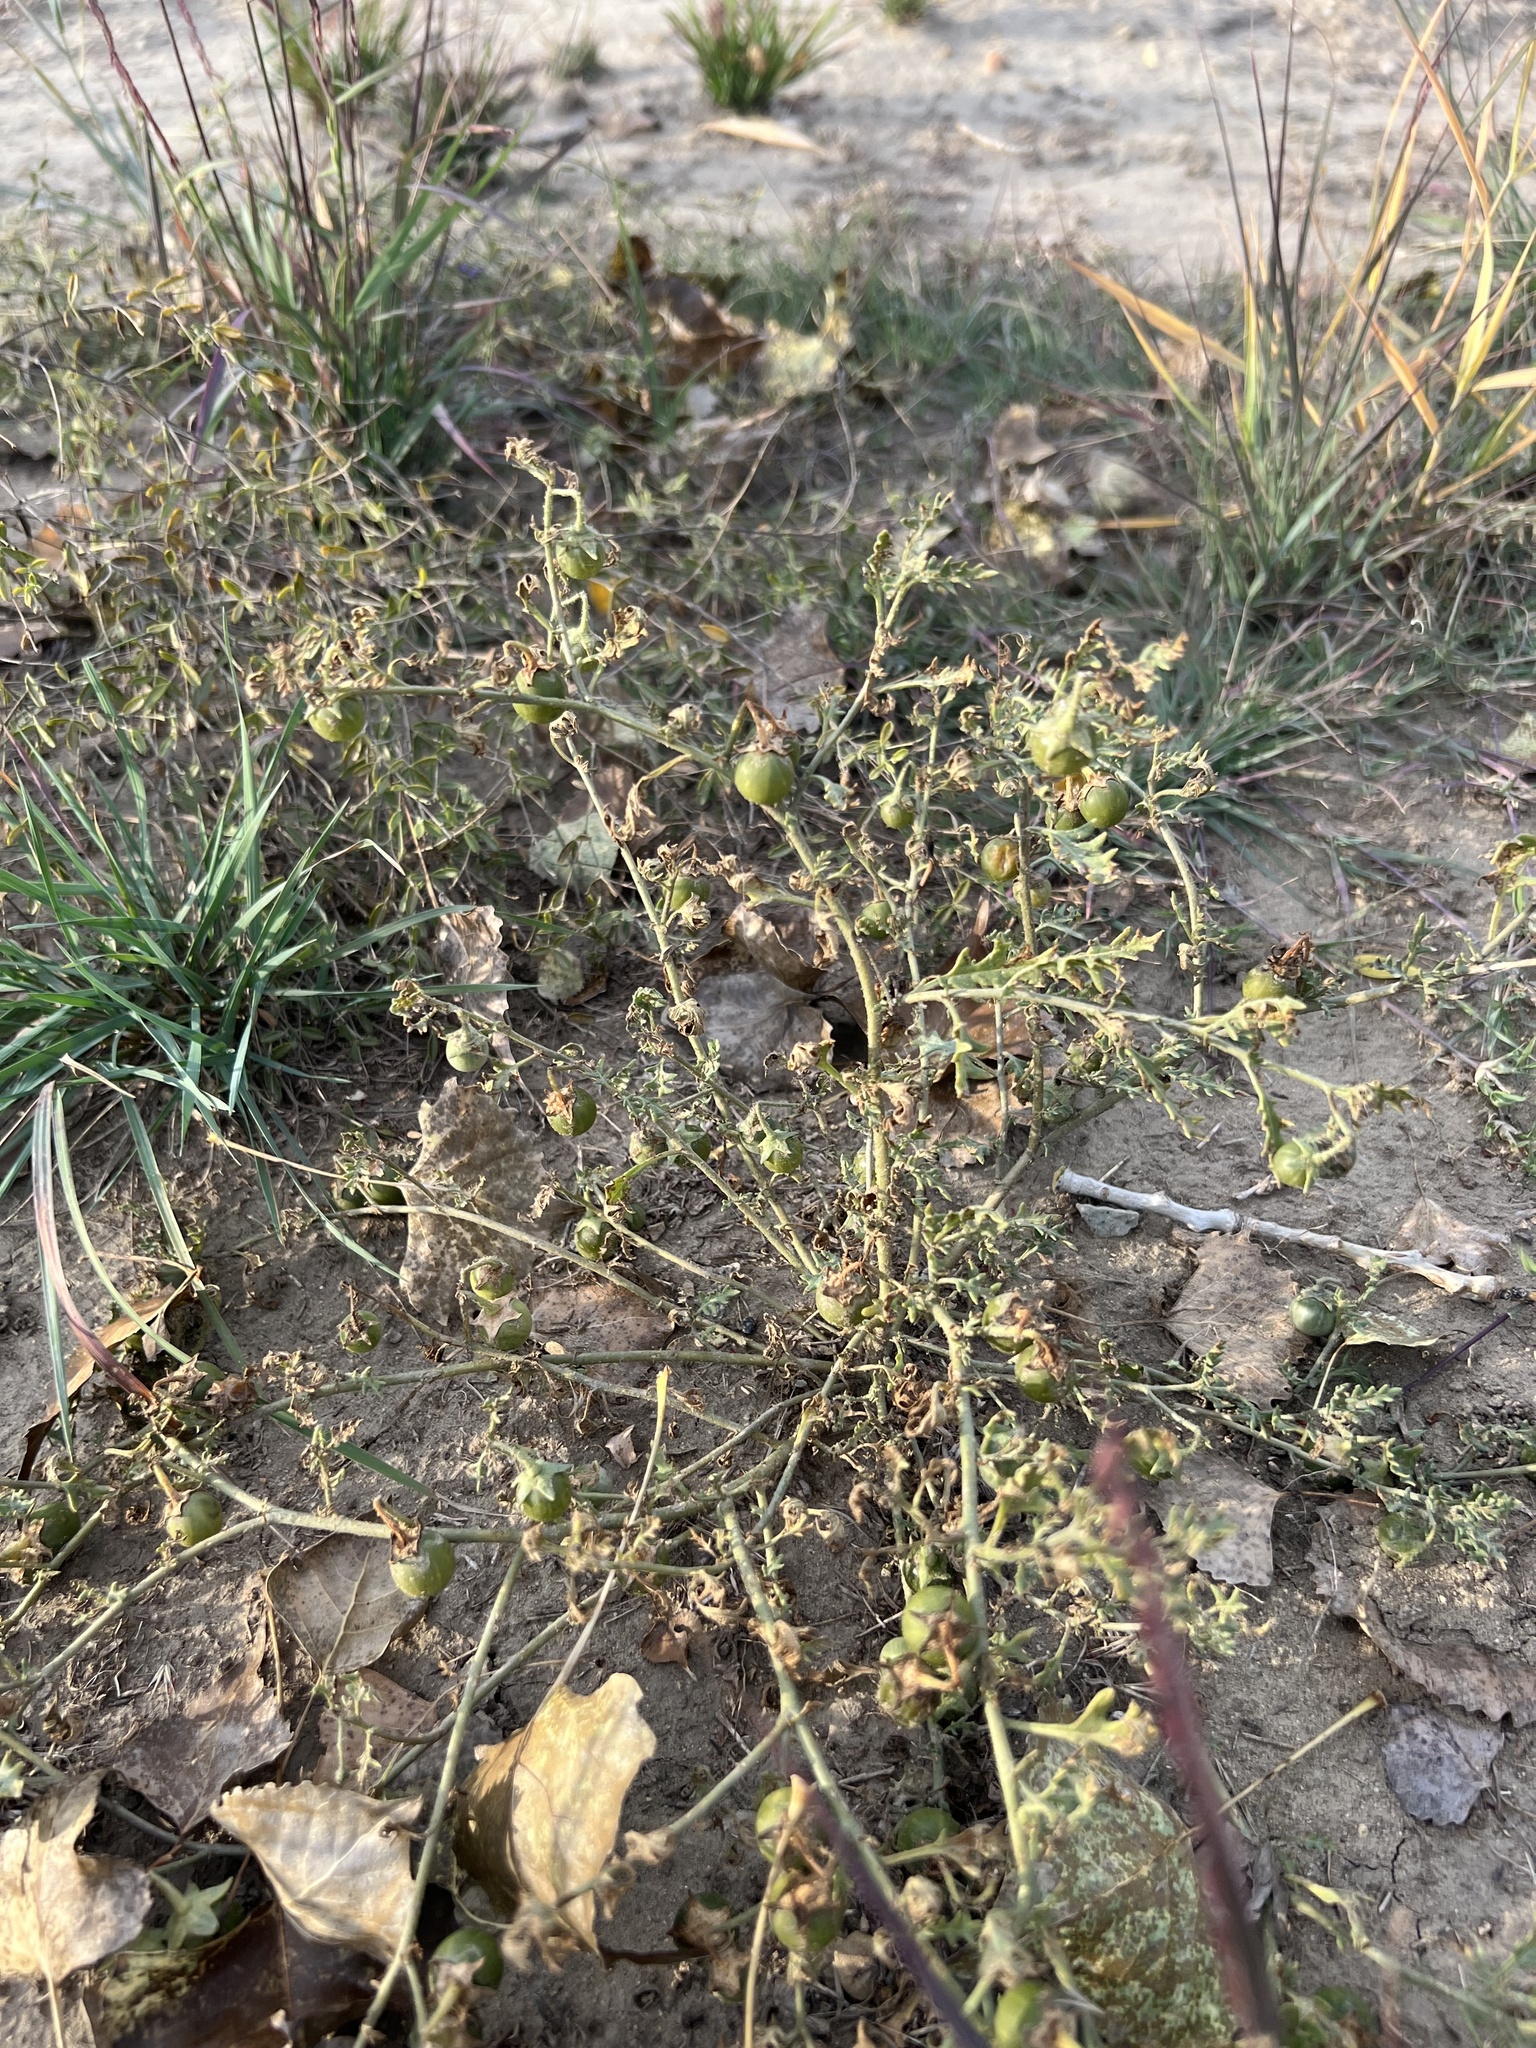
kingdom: Plantae
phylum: Tracheophyta
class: Magnoliopsida
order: Solanales
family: Solanaceae
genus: Solanum
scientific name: Solanum triflorum
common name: Small nightshade
